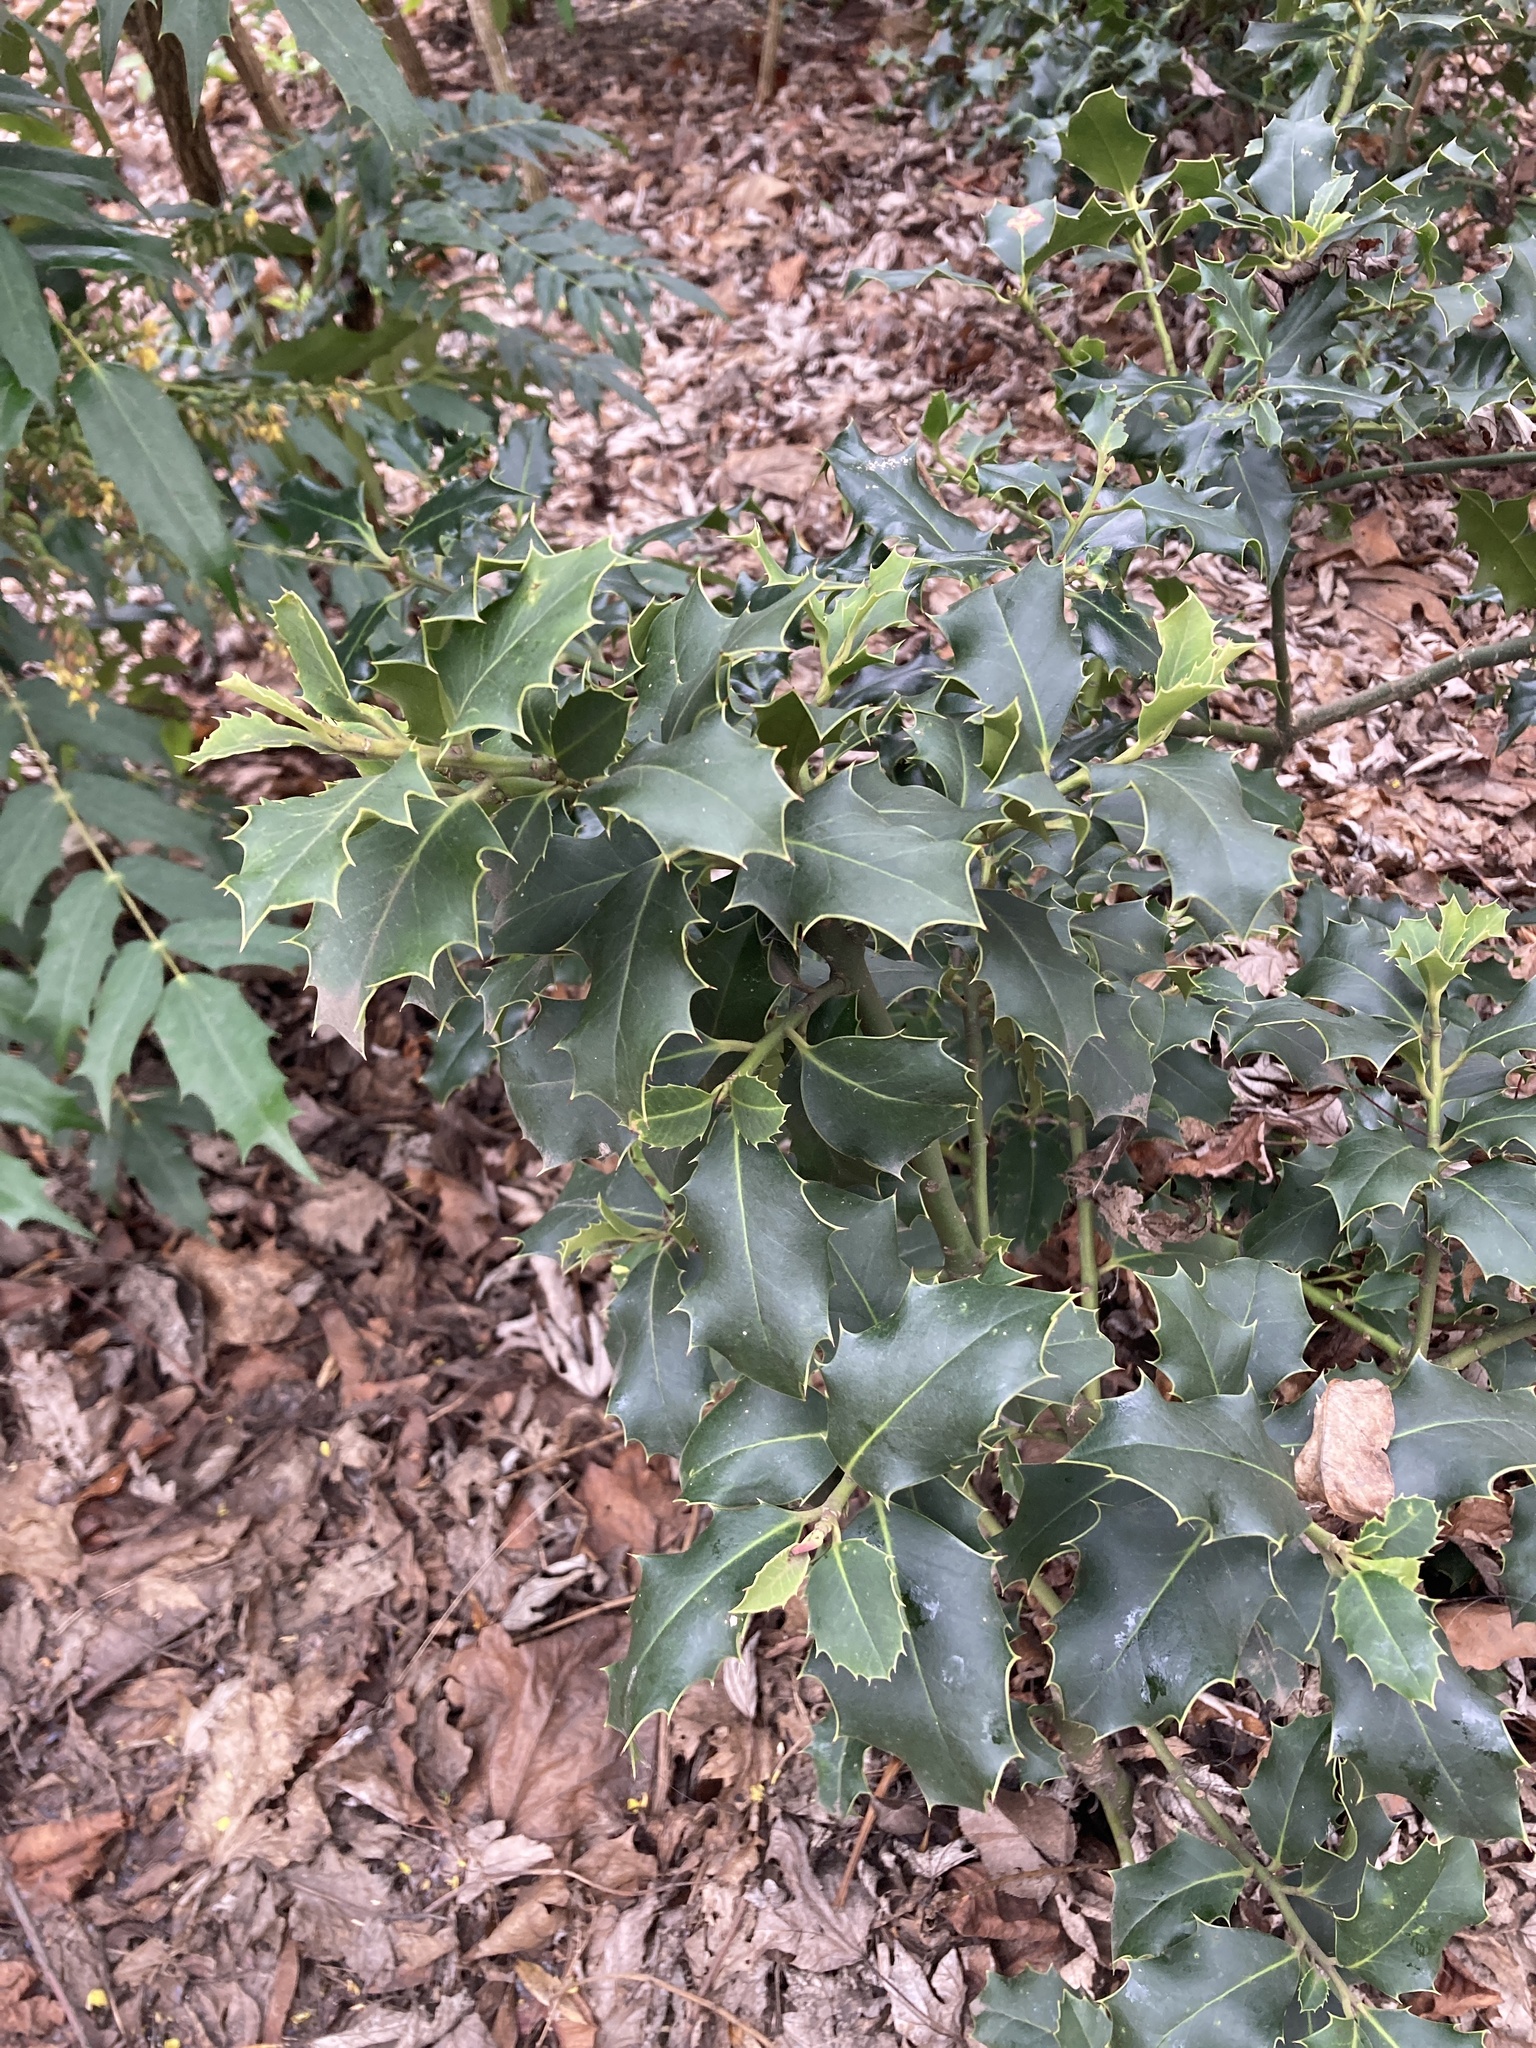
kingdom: Plantae
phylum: Tracheophyta
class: Magnoliopsida
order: Aquifoliales
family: Aquifoliaceae
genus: Ilex
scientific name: Ilex aquifolium
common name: English holly
